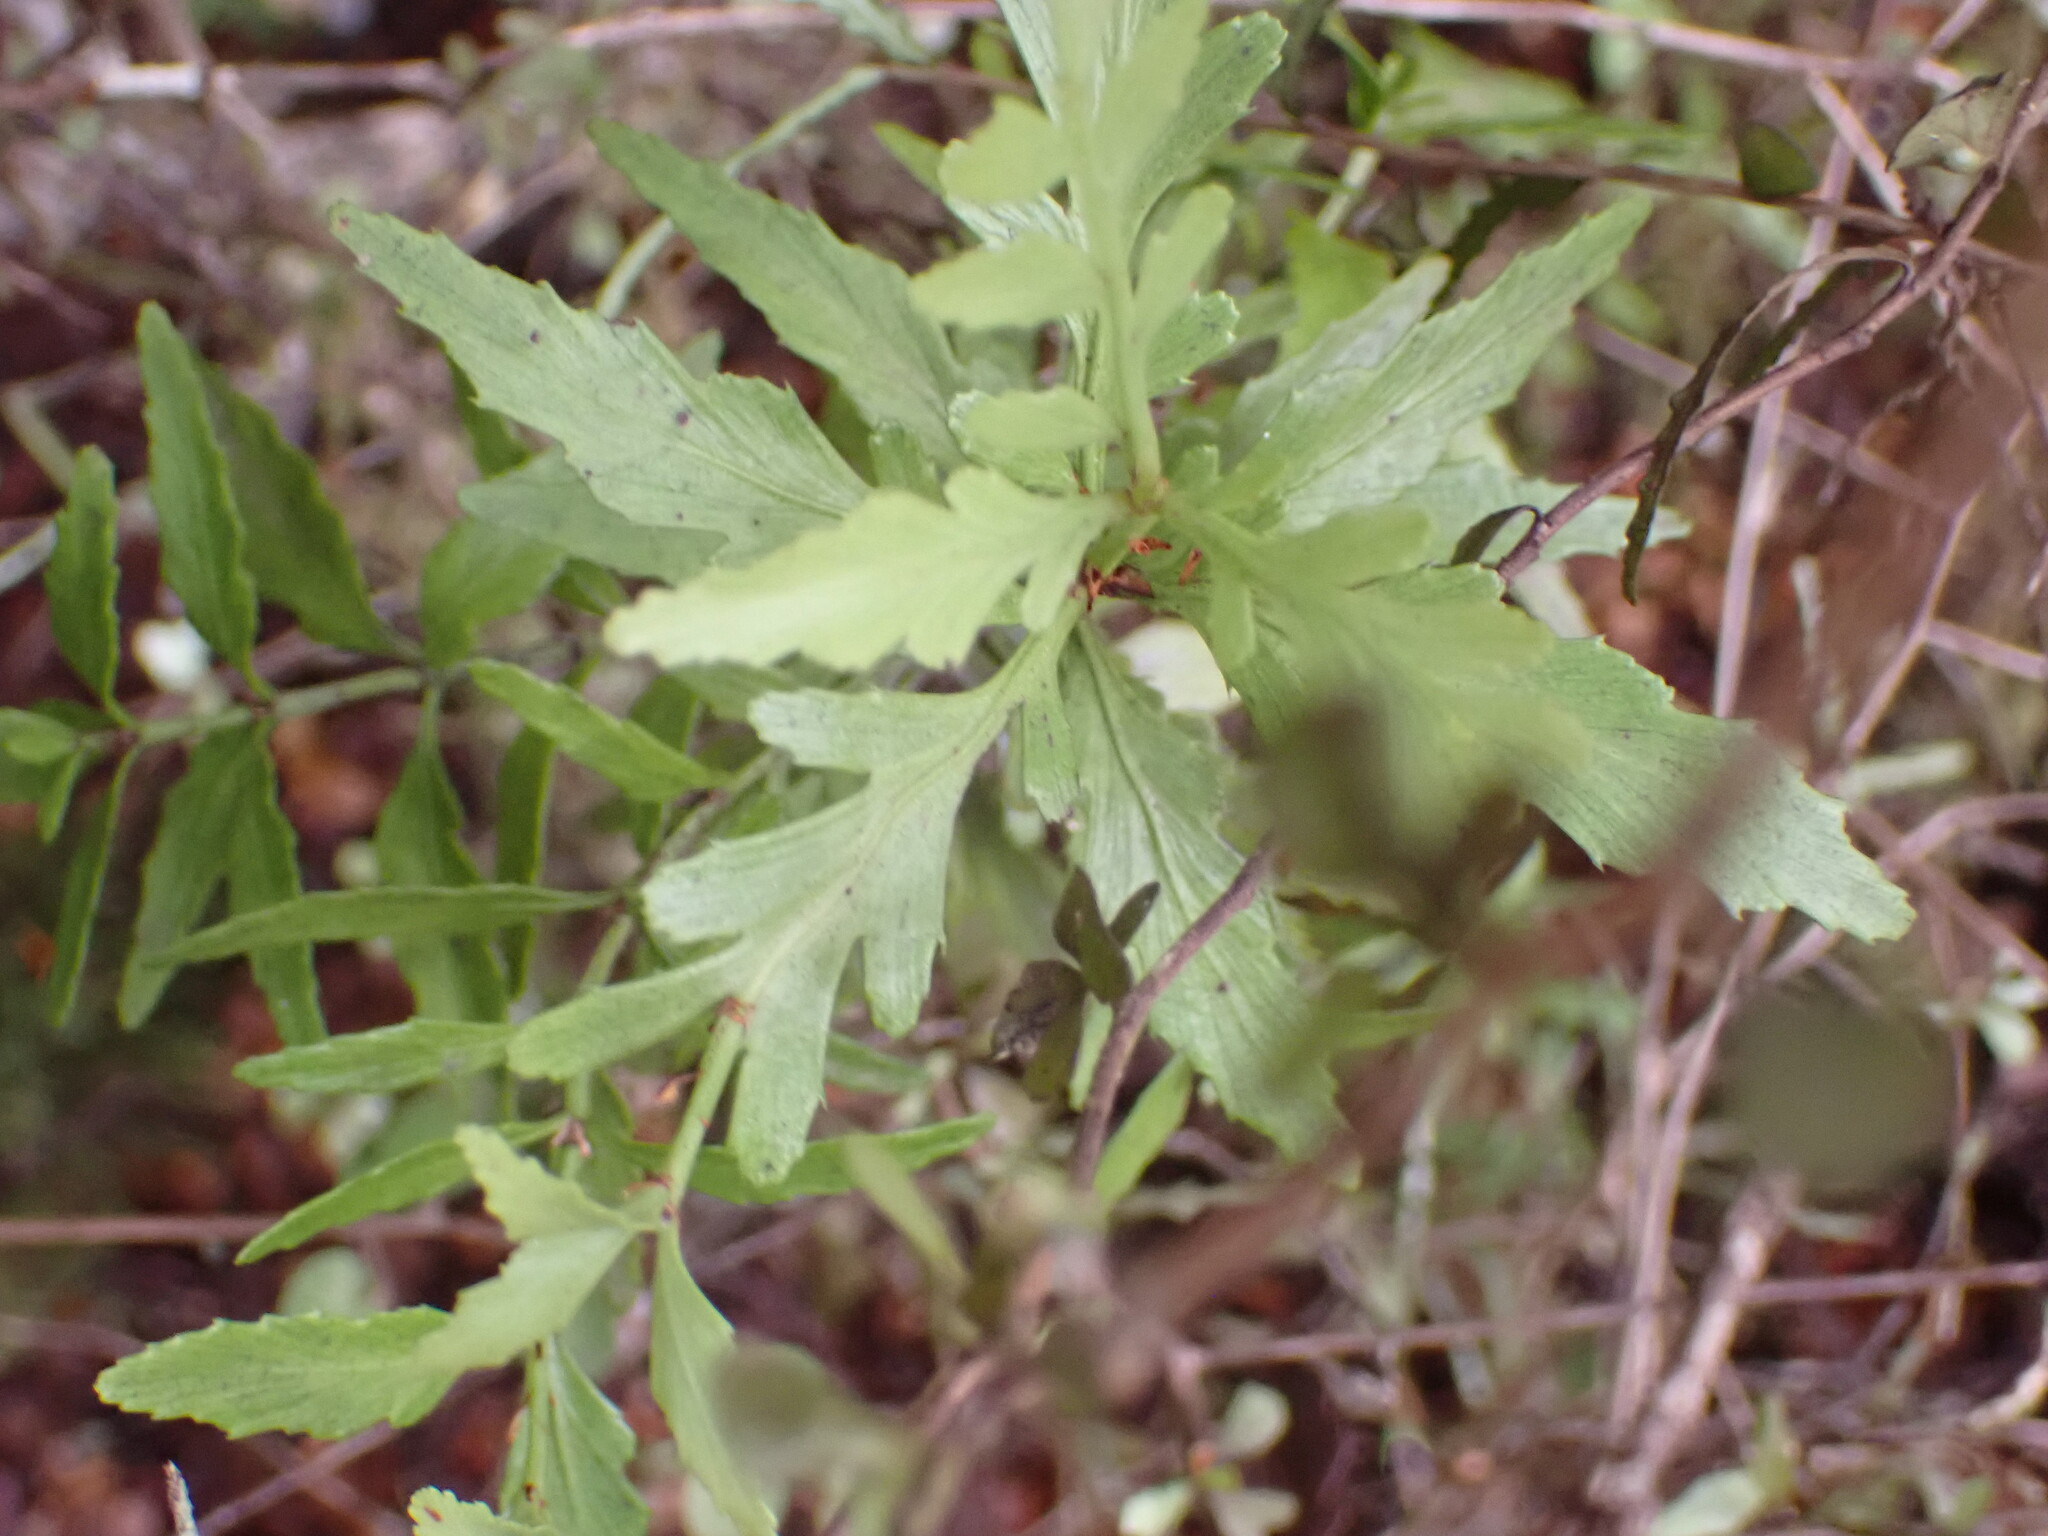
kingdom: Plantae
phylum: Tracheophyta
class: Pinopsida
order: Pinales
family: Phyllocladaceae
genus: Phyllocladus
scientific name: Phyllocladus trichomanoides
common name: Celery pine
